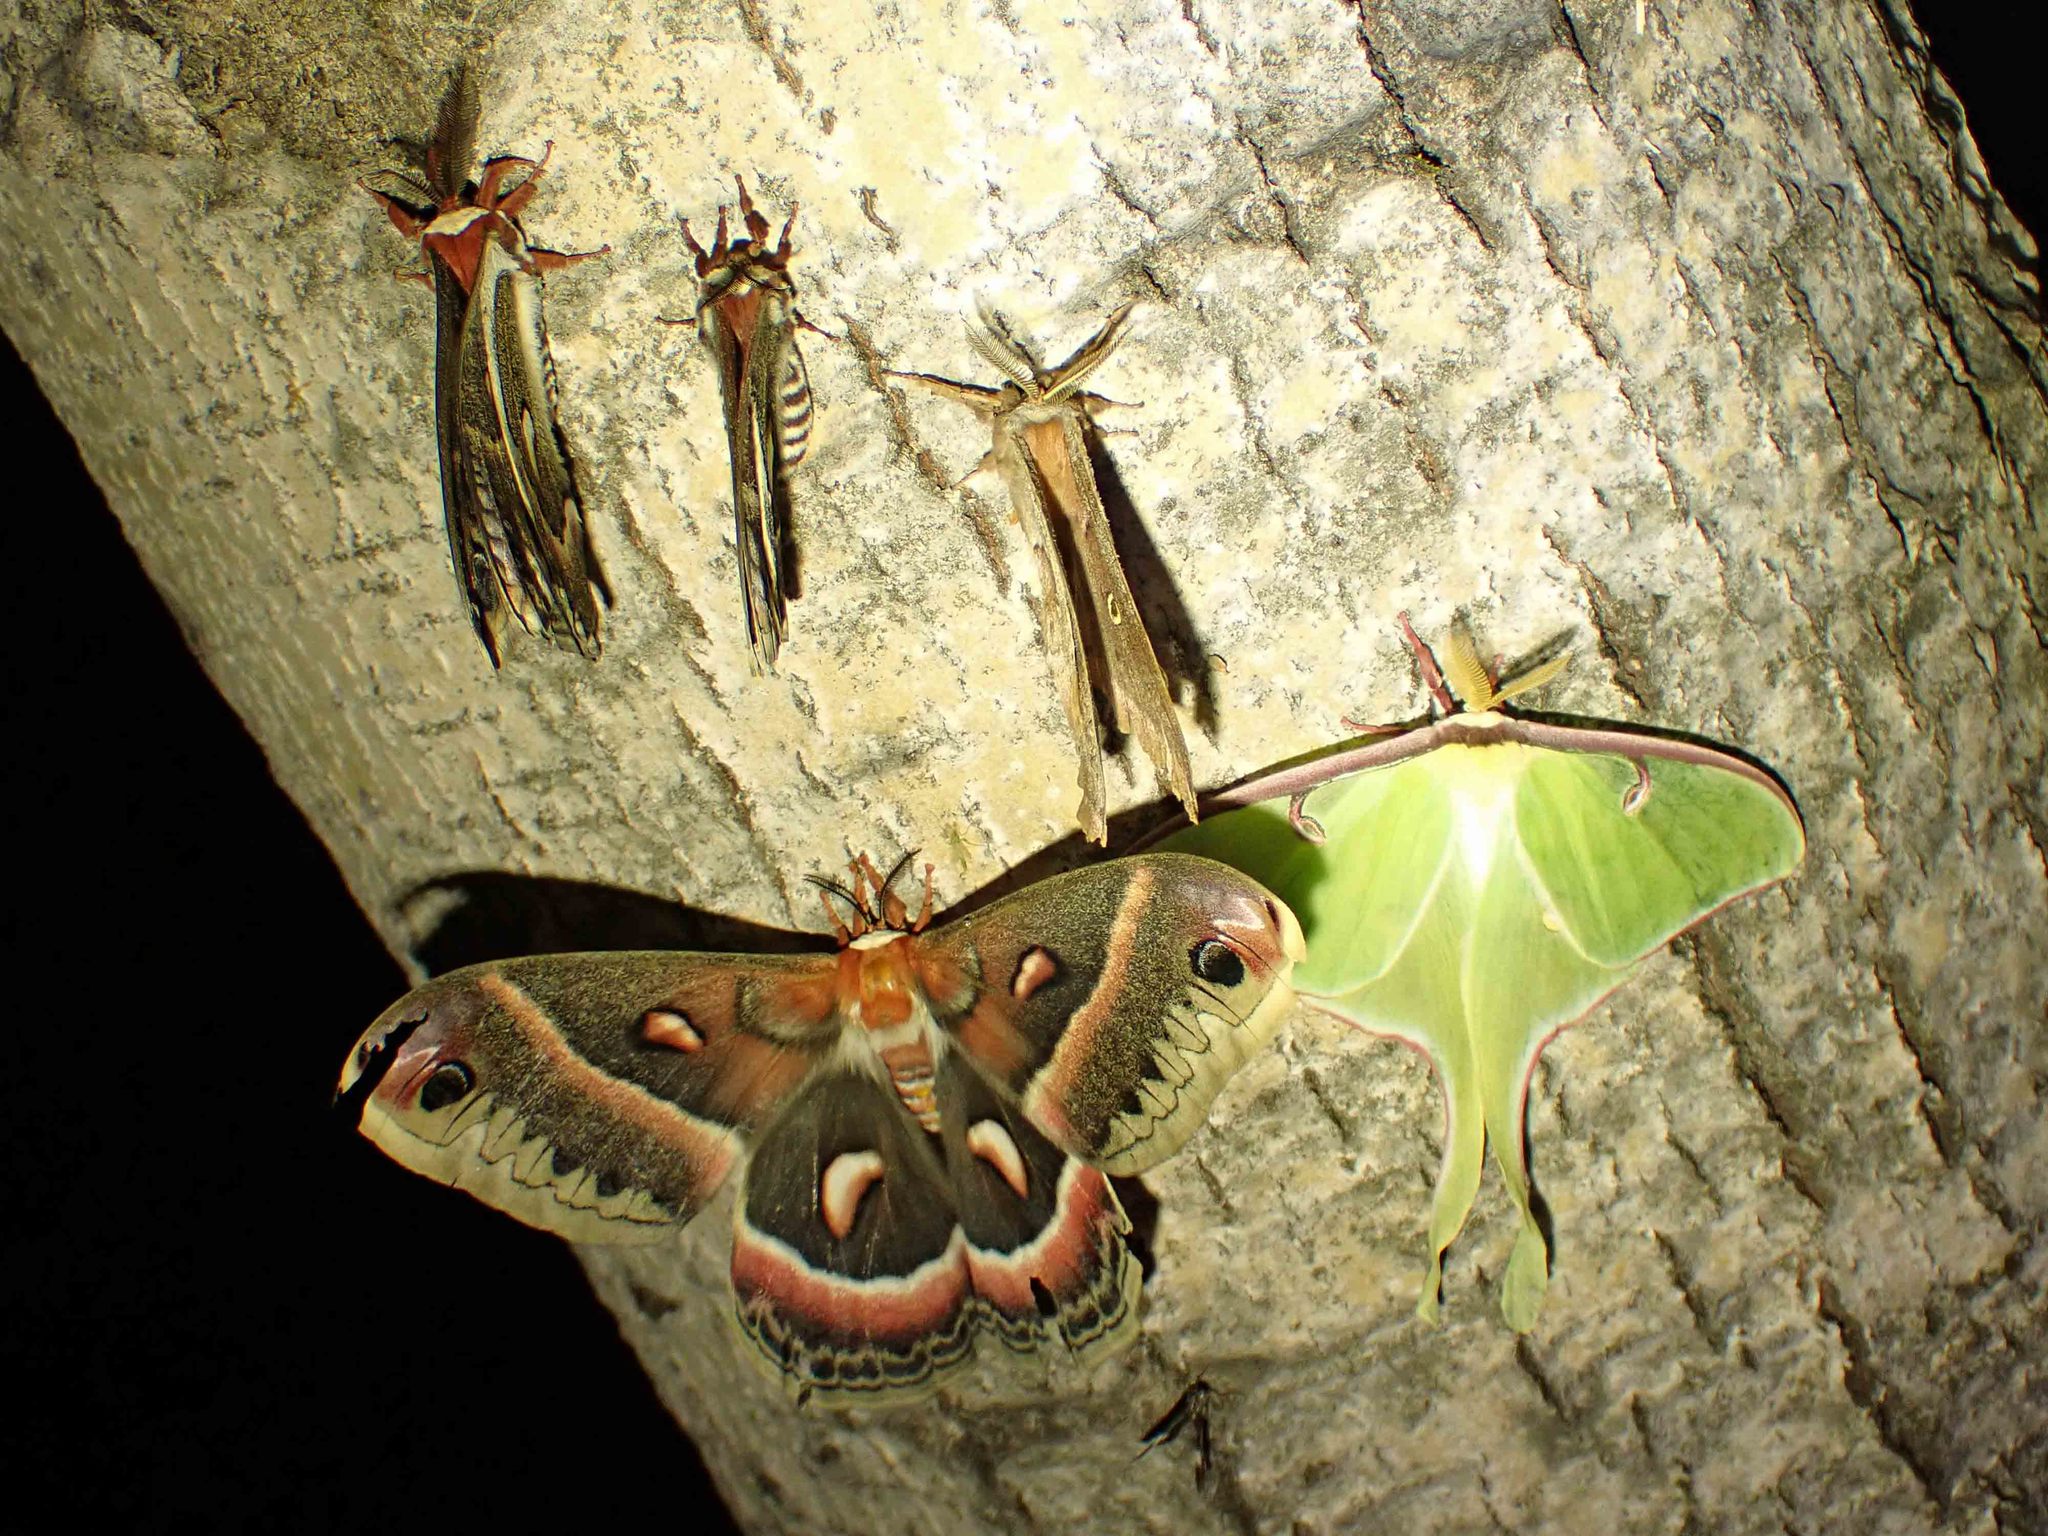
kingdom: Animalia
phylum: Arthropoda
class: Insecta
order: Lepidoptera
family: Saturniidae
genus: Actias
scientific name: Actias luna
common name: Luna moth
